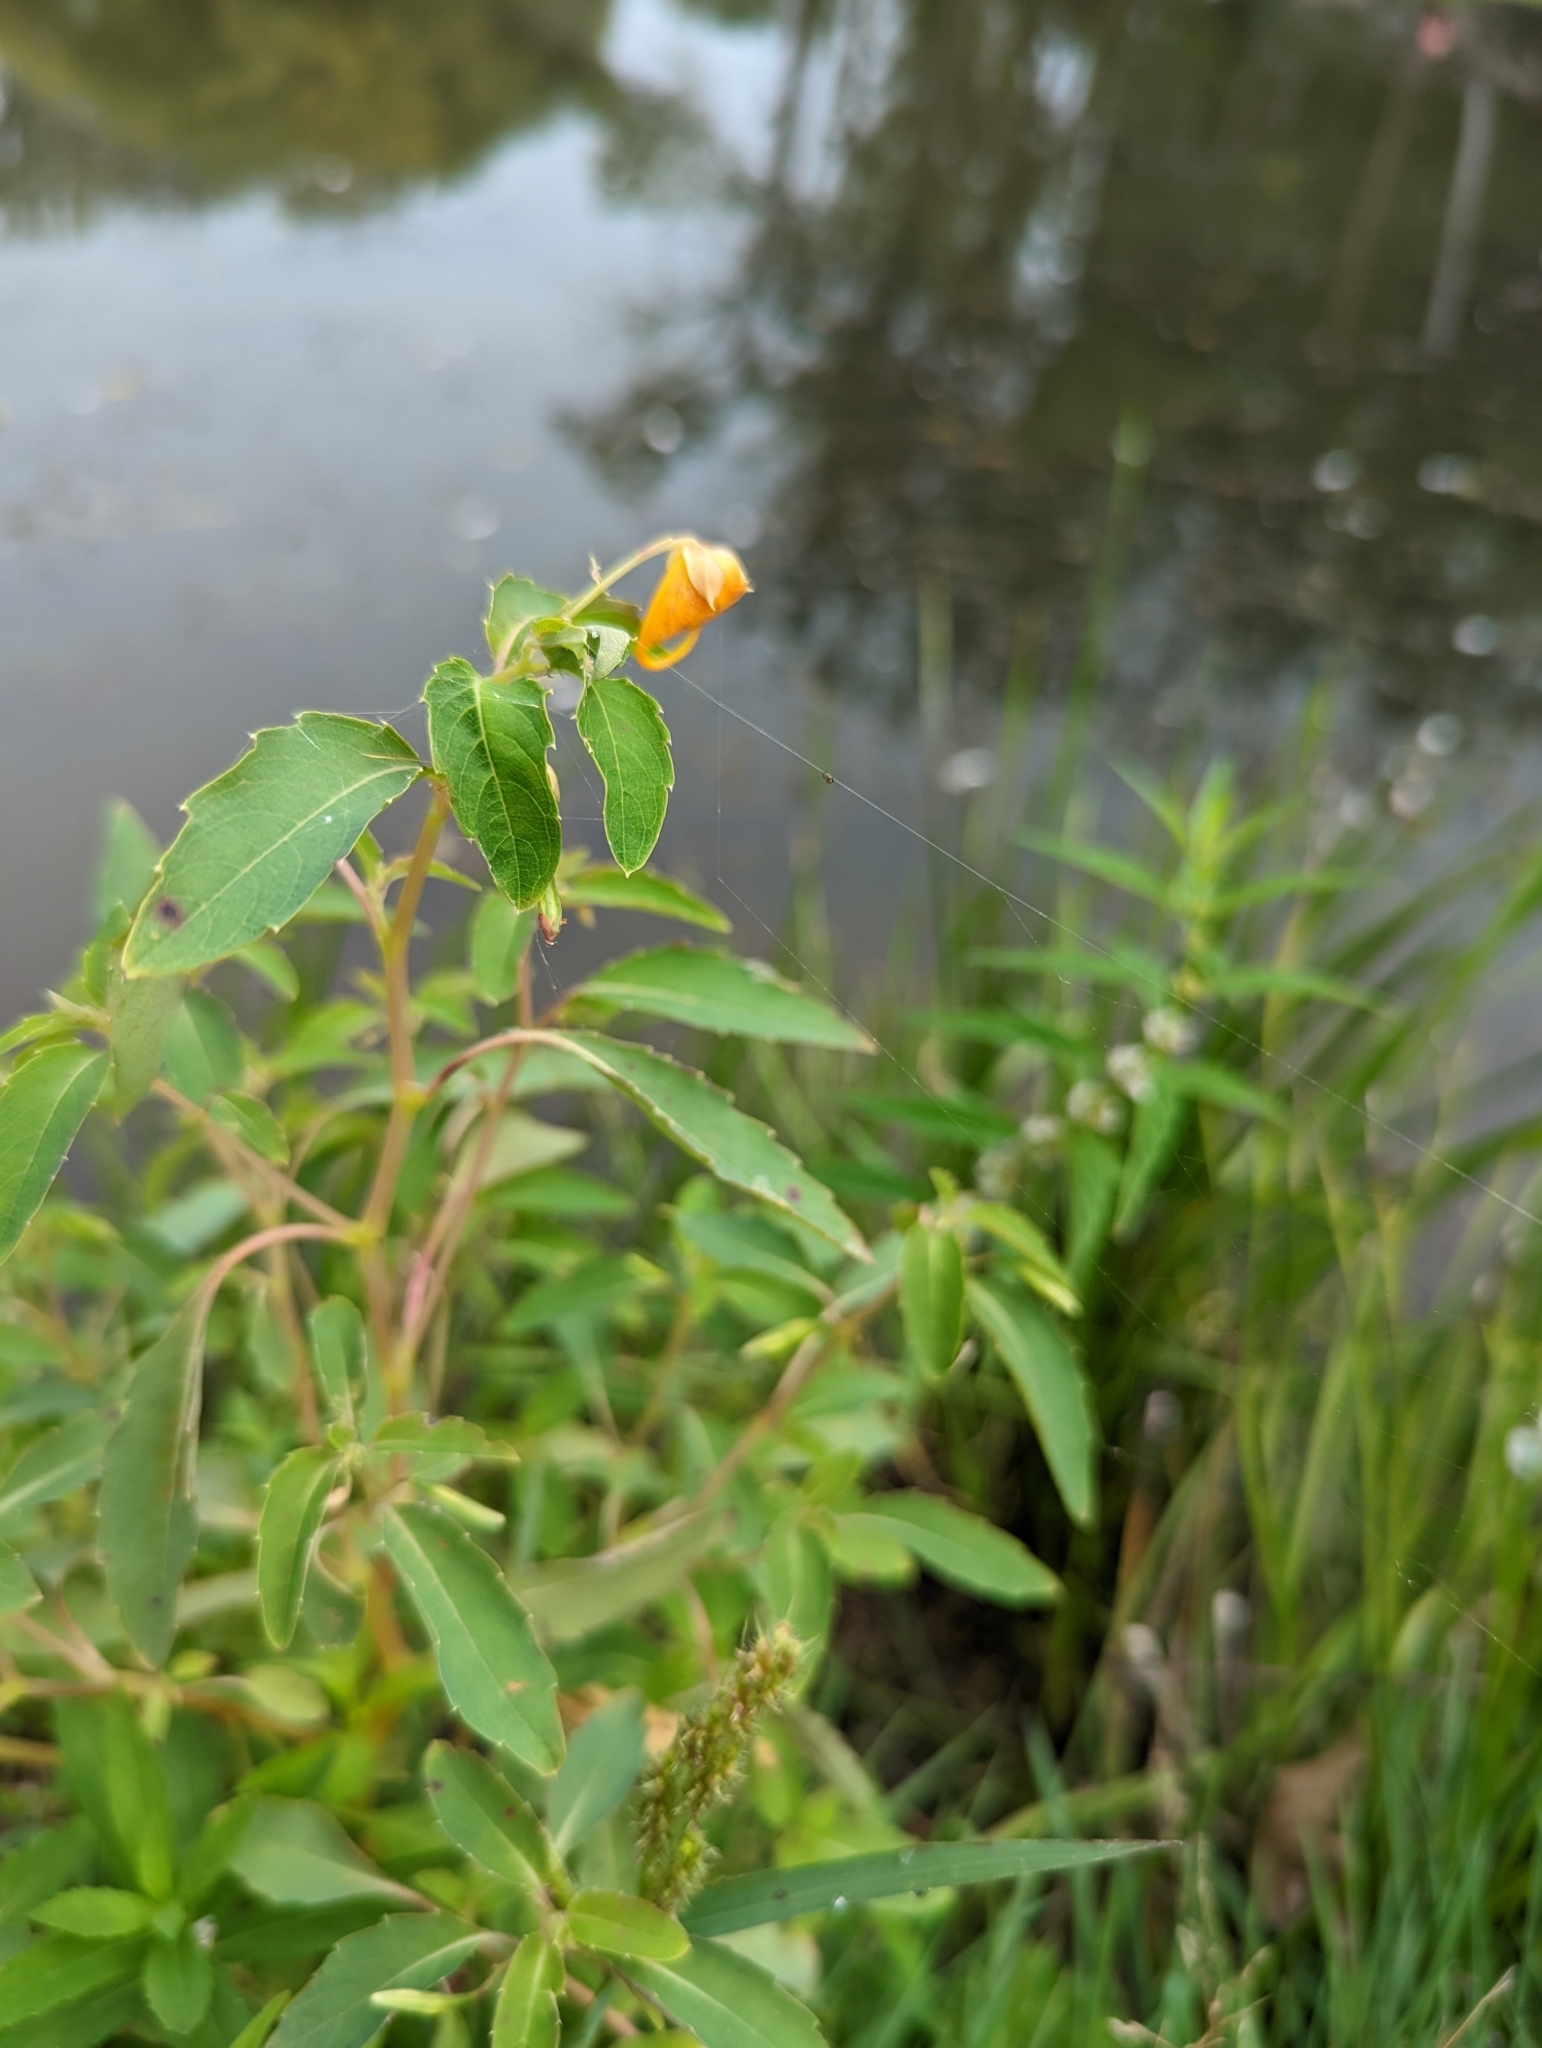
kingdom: Plantae
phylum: Tracheophyta
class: Magnoliopsida
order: Ericales
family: Balsaminaceae
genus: Impatiens
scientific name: Impatiens capensis
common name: Orange balsam
